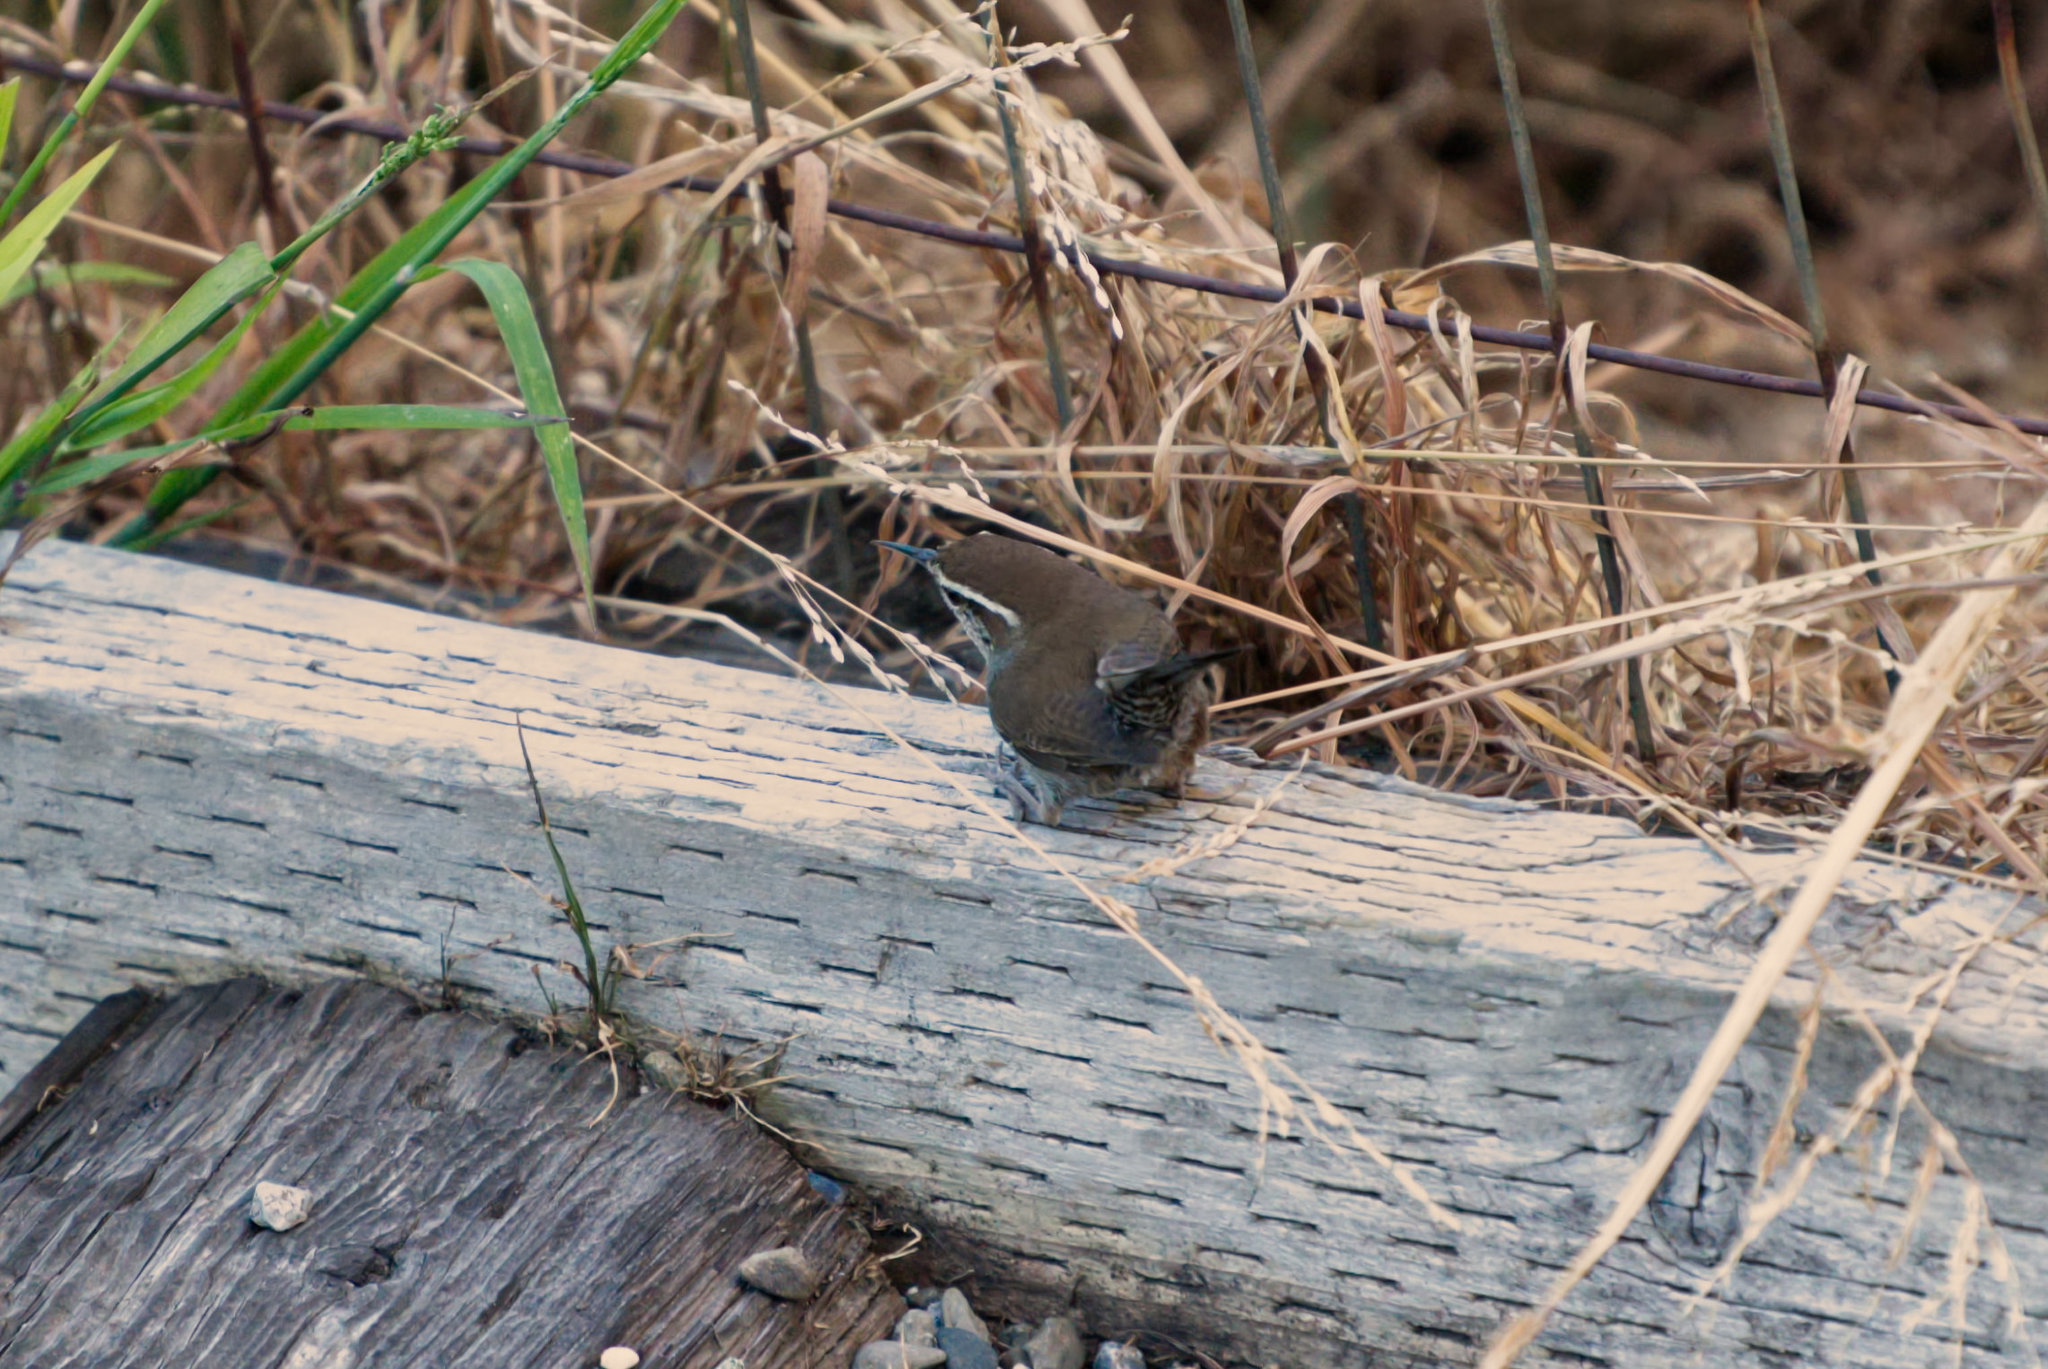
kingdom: Animalia
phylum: Chordata
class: Aves
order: Passeriformes
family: Troglodytidae
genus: Thryomanes
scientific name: Thryomanes bewickii
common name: Bewick's wren
